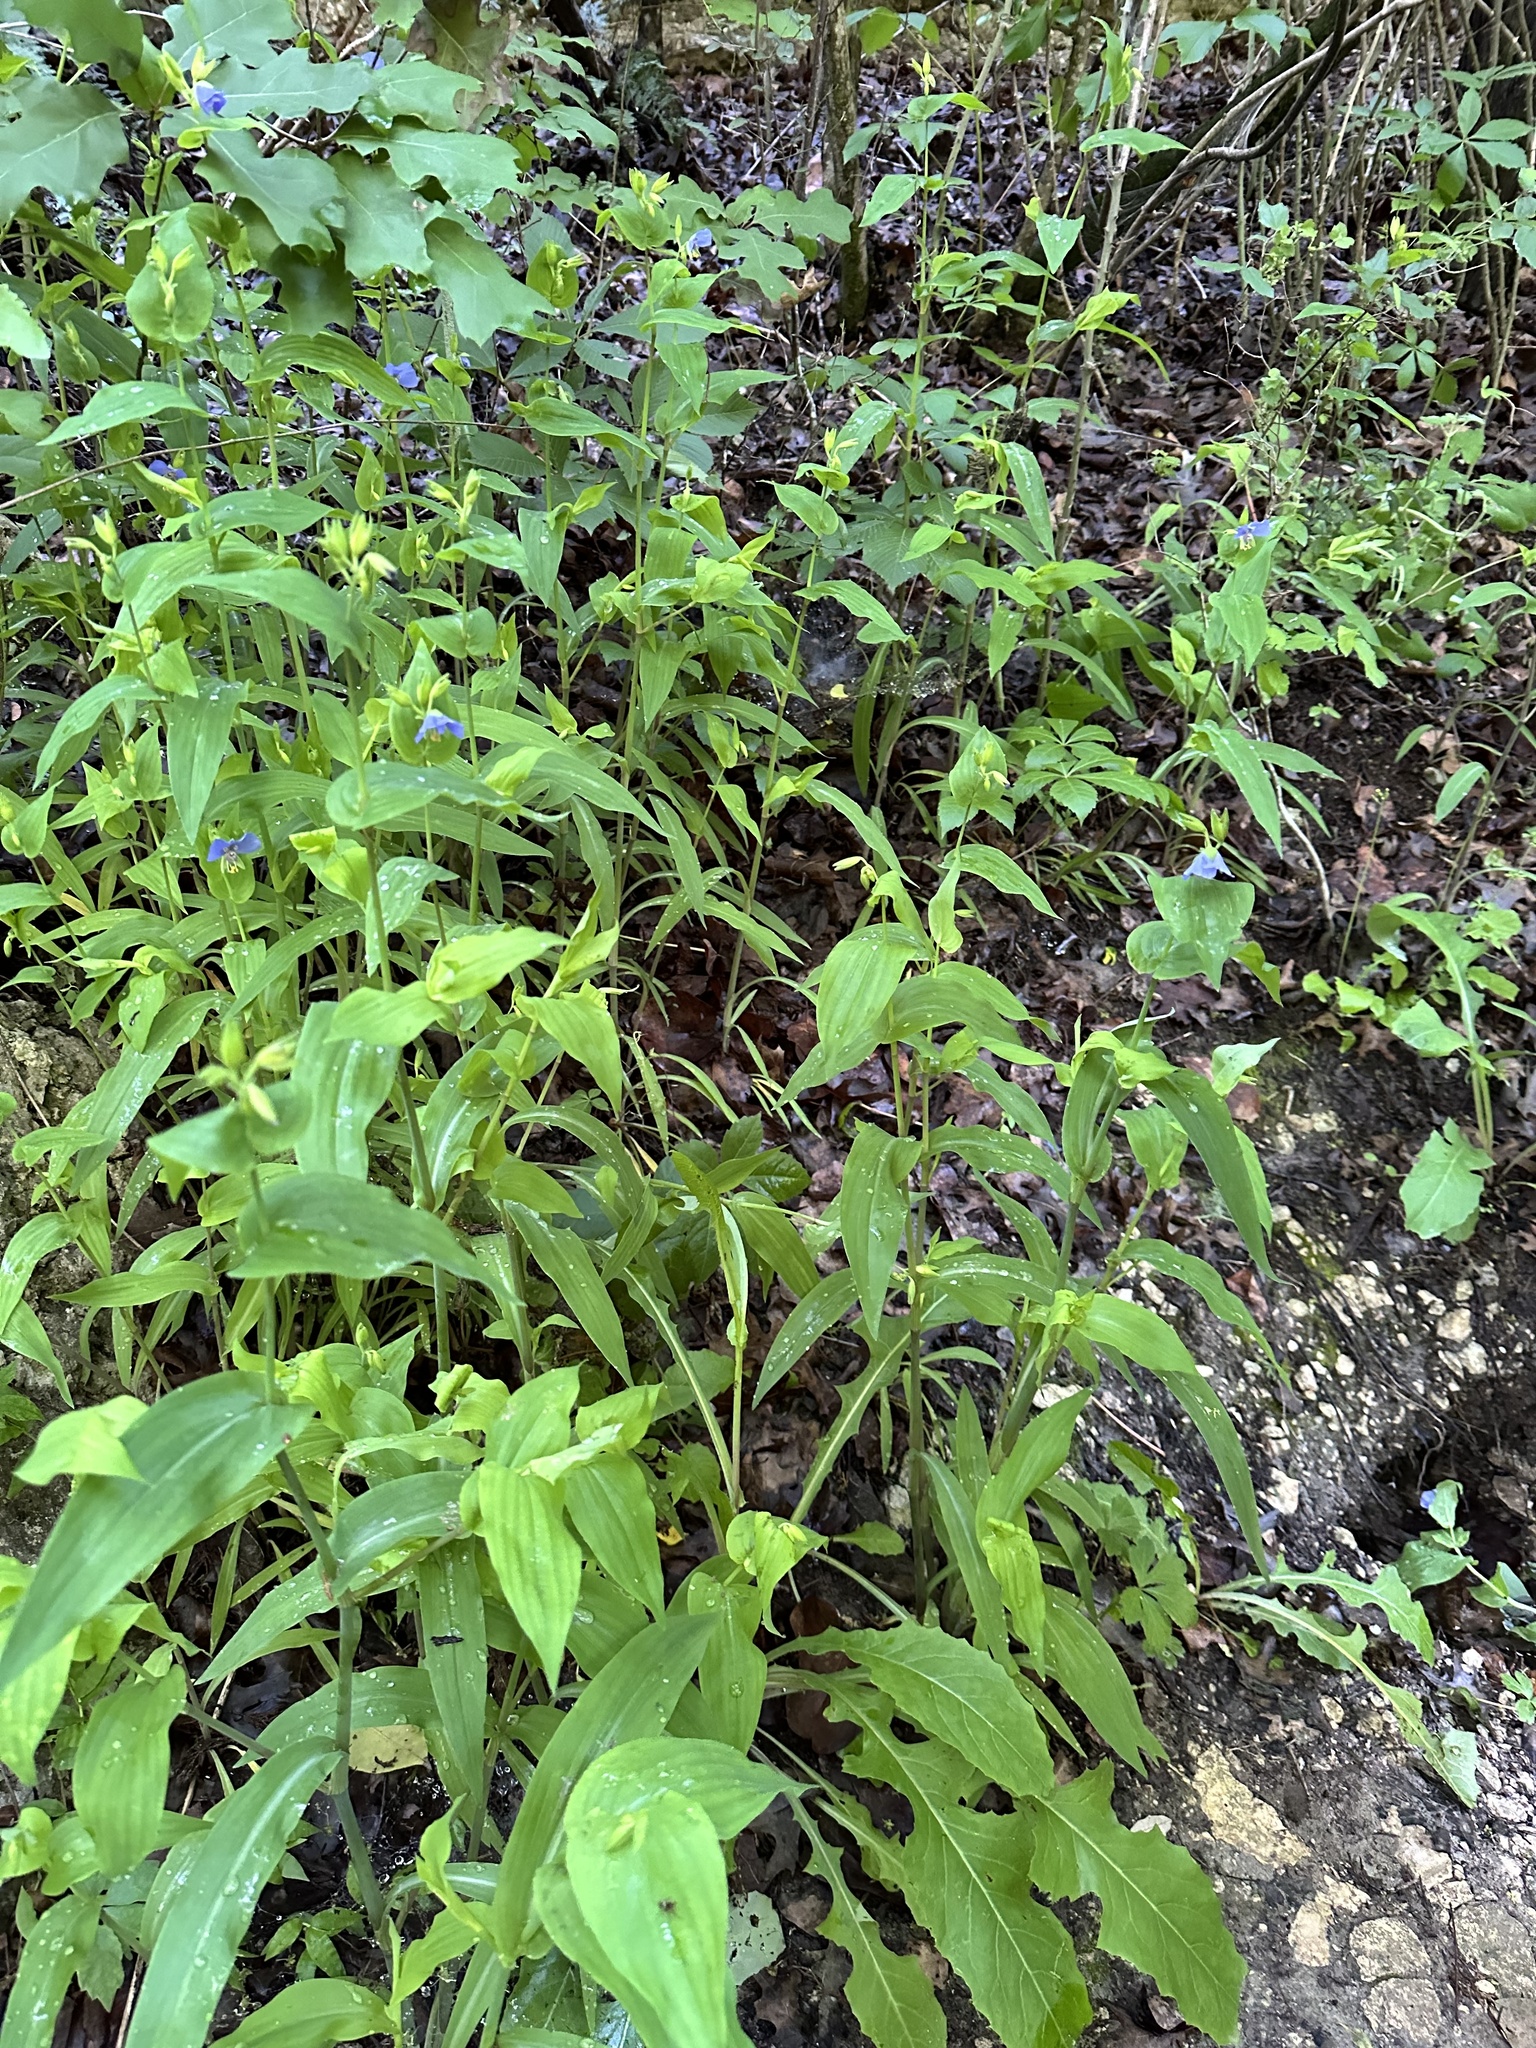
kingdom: Plantae
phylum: Tracheophyta
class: Liliopsida
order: Commelinales
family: Commelinaceae
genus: Tinantia
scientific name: Tinantia anomala
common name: False dayflower
